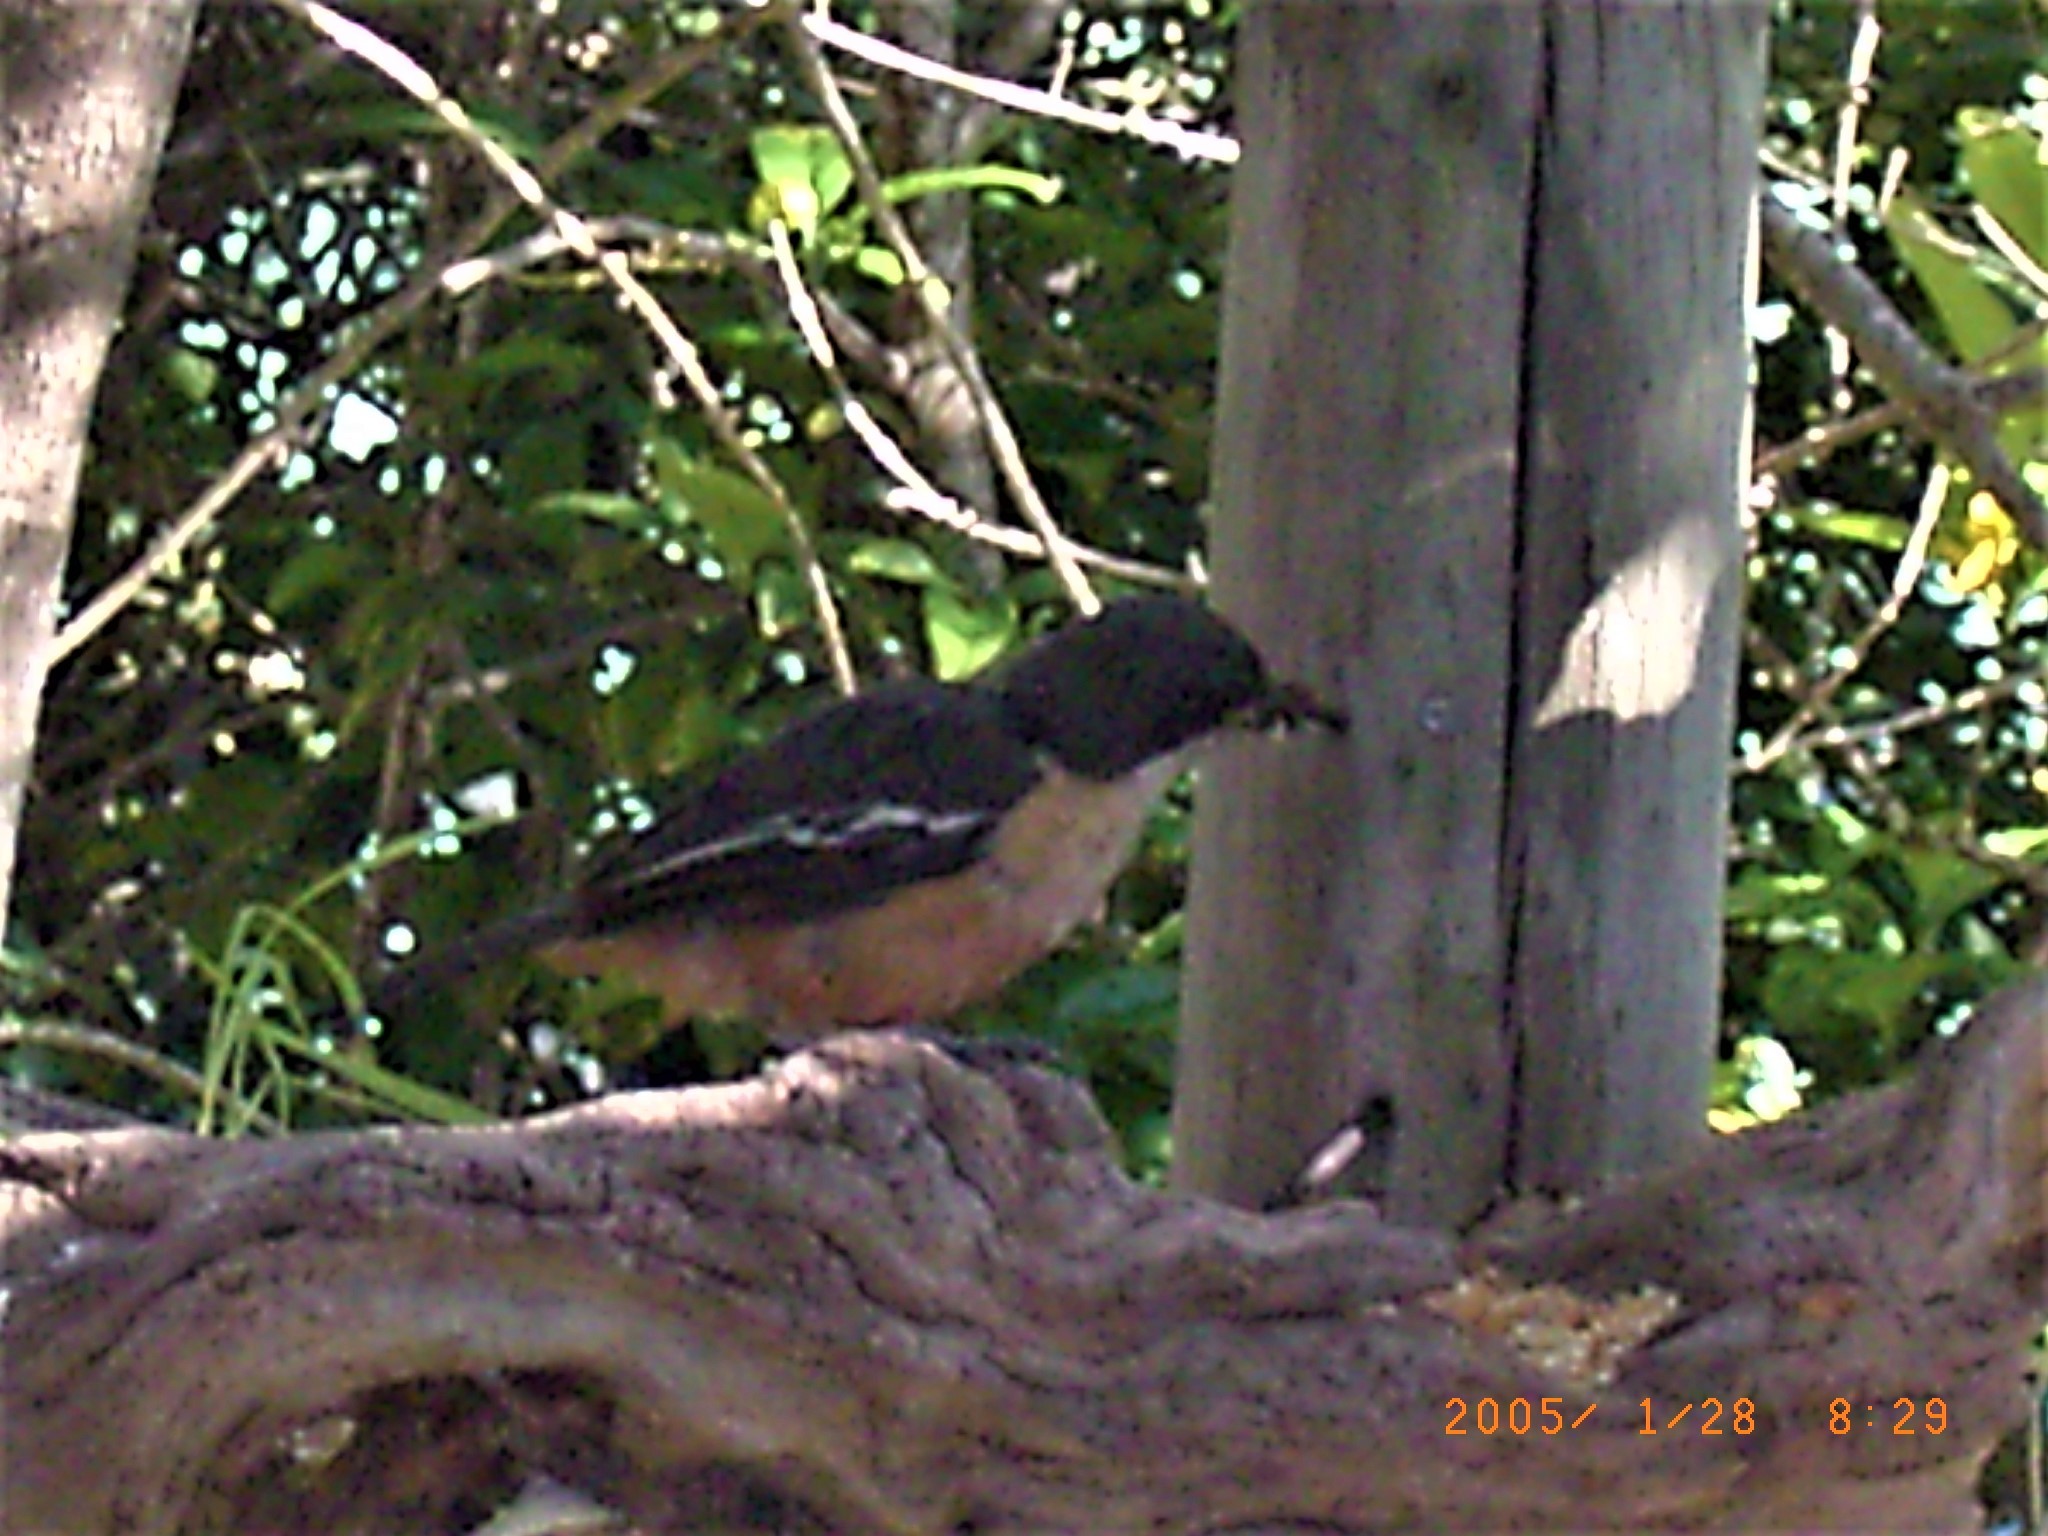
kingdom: Animalia
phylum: Chordata
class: Aves
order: Passeriformes
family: Malaconotidae
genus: Laniarius
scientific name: Laniarius ferrugineus
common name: Southern boubou
